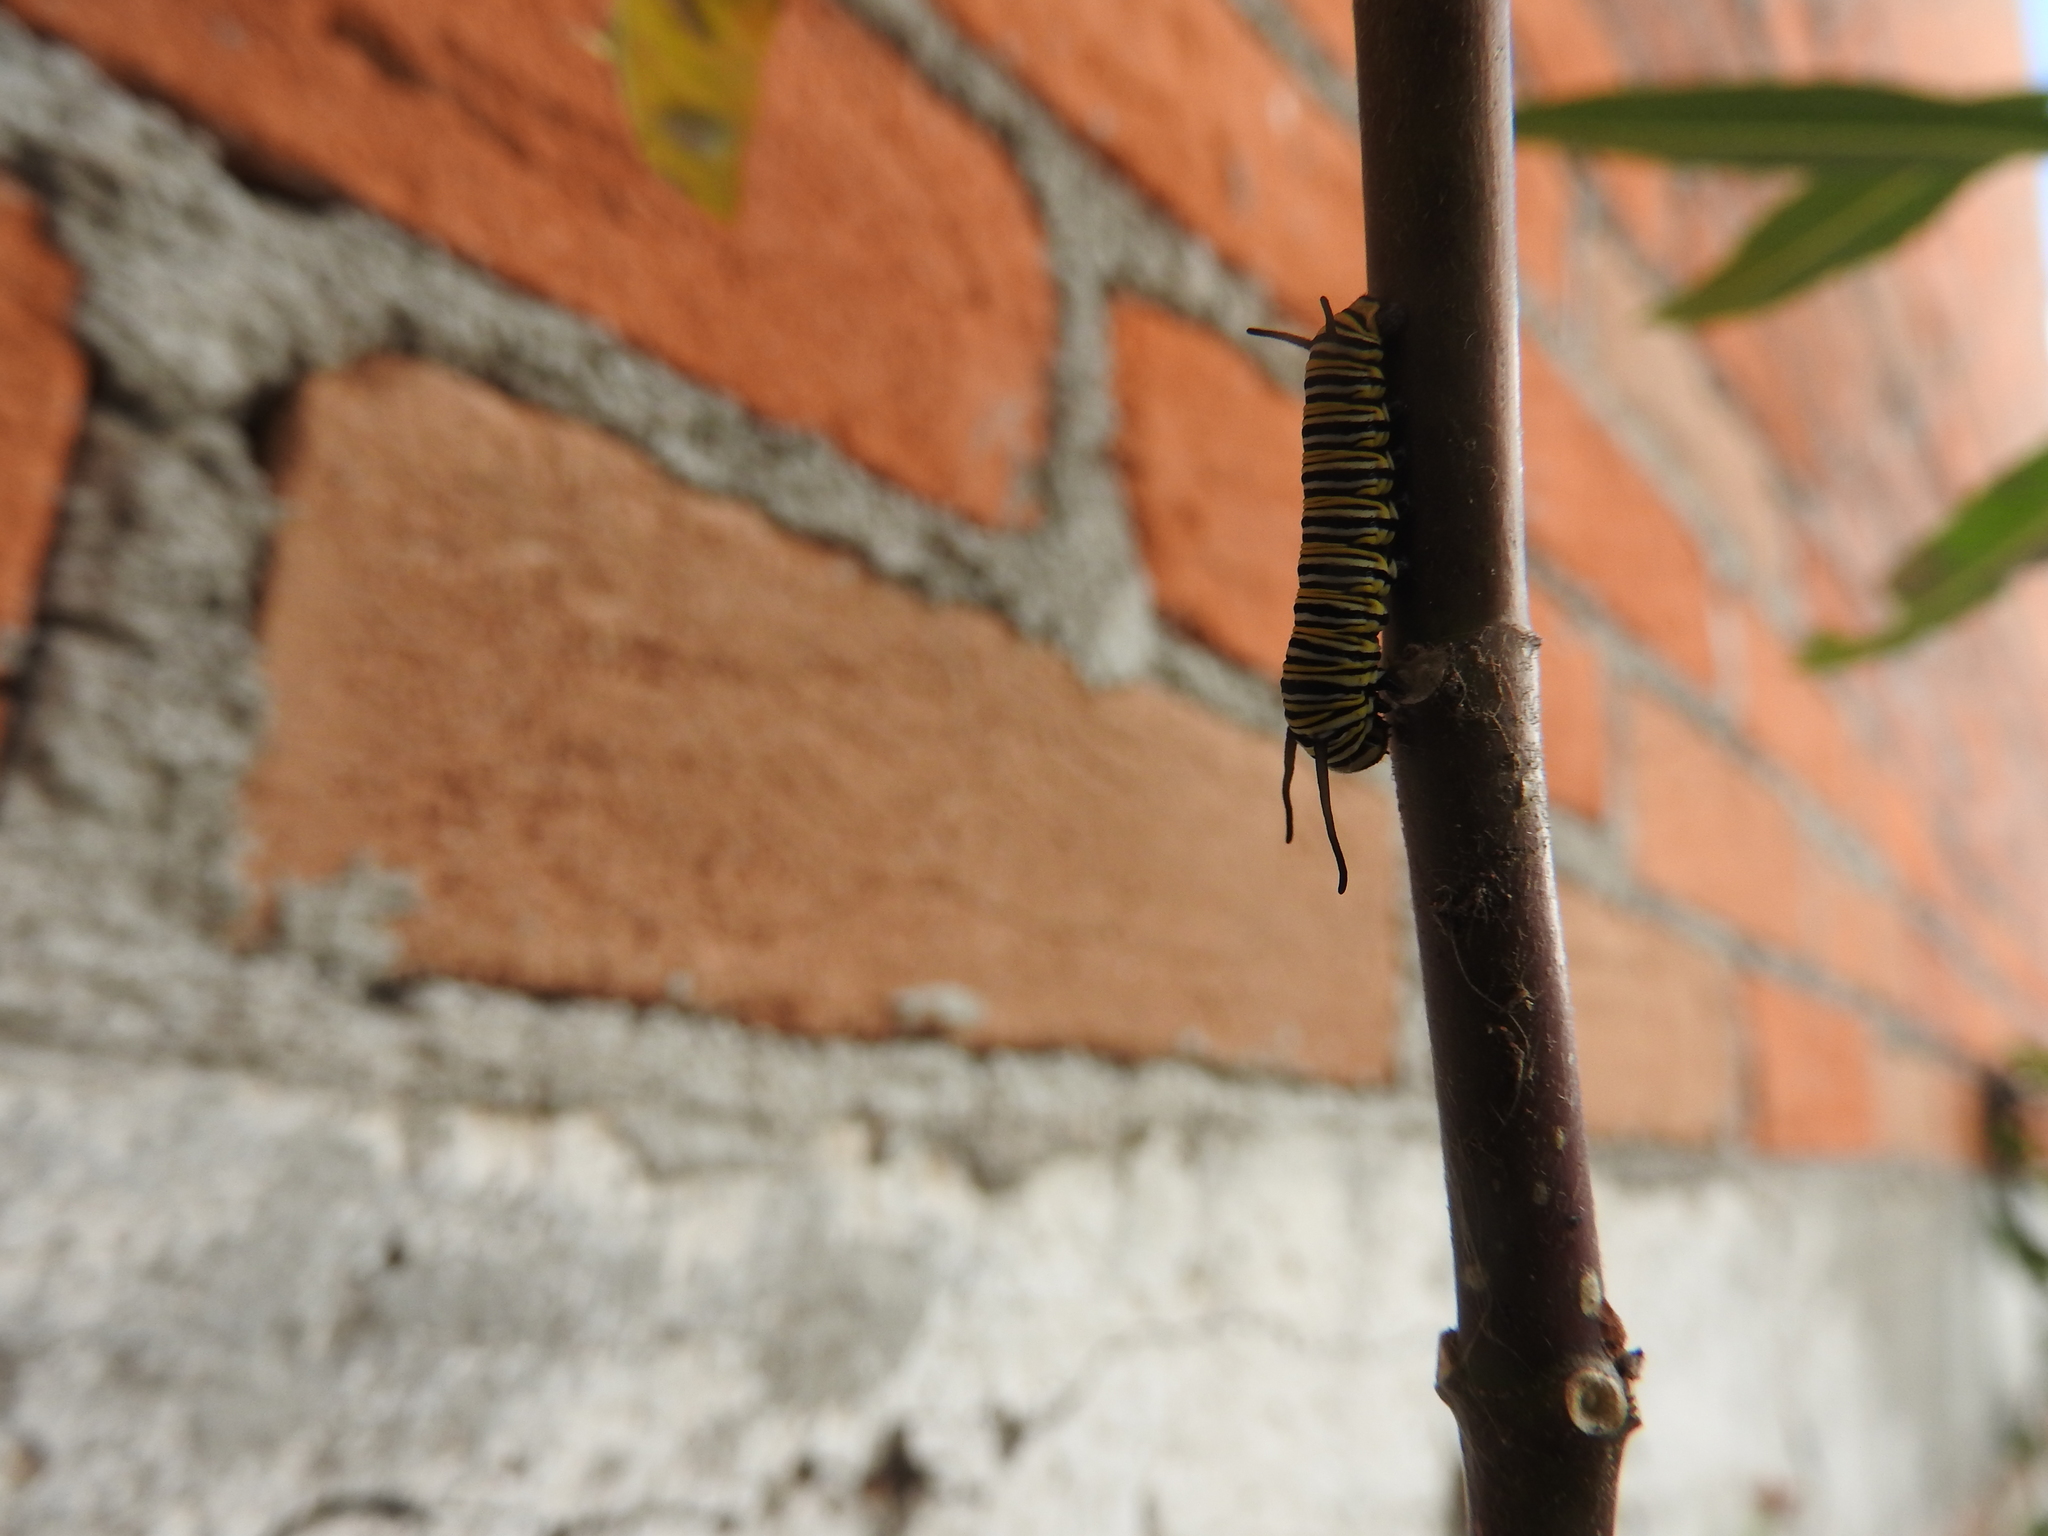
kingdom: Animalia
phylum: Arthropoda
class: Insecta
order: Lepidoptera
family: Nymphalidae
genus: Danaus
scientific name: Danaus plexippus
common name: Monarch
